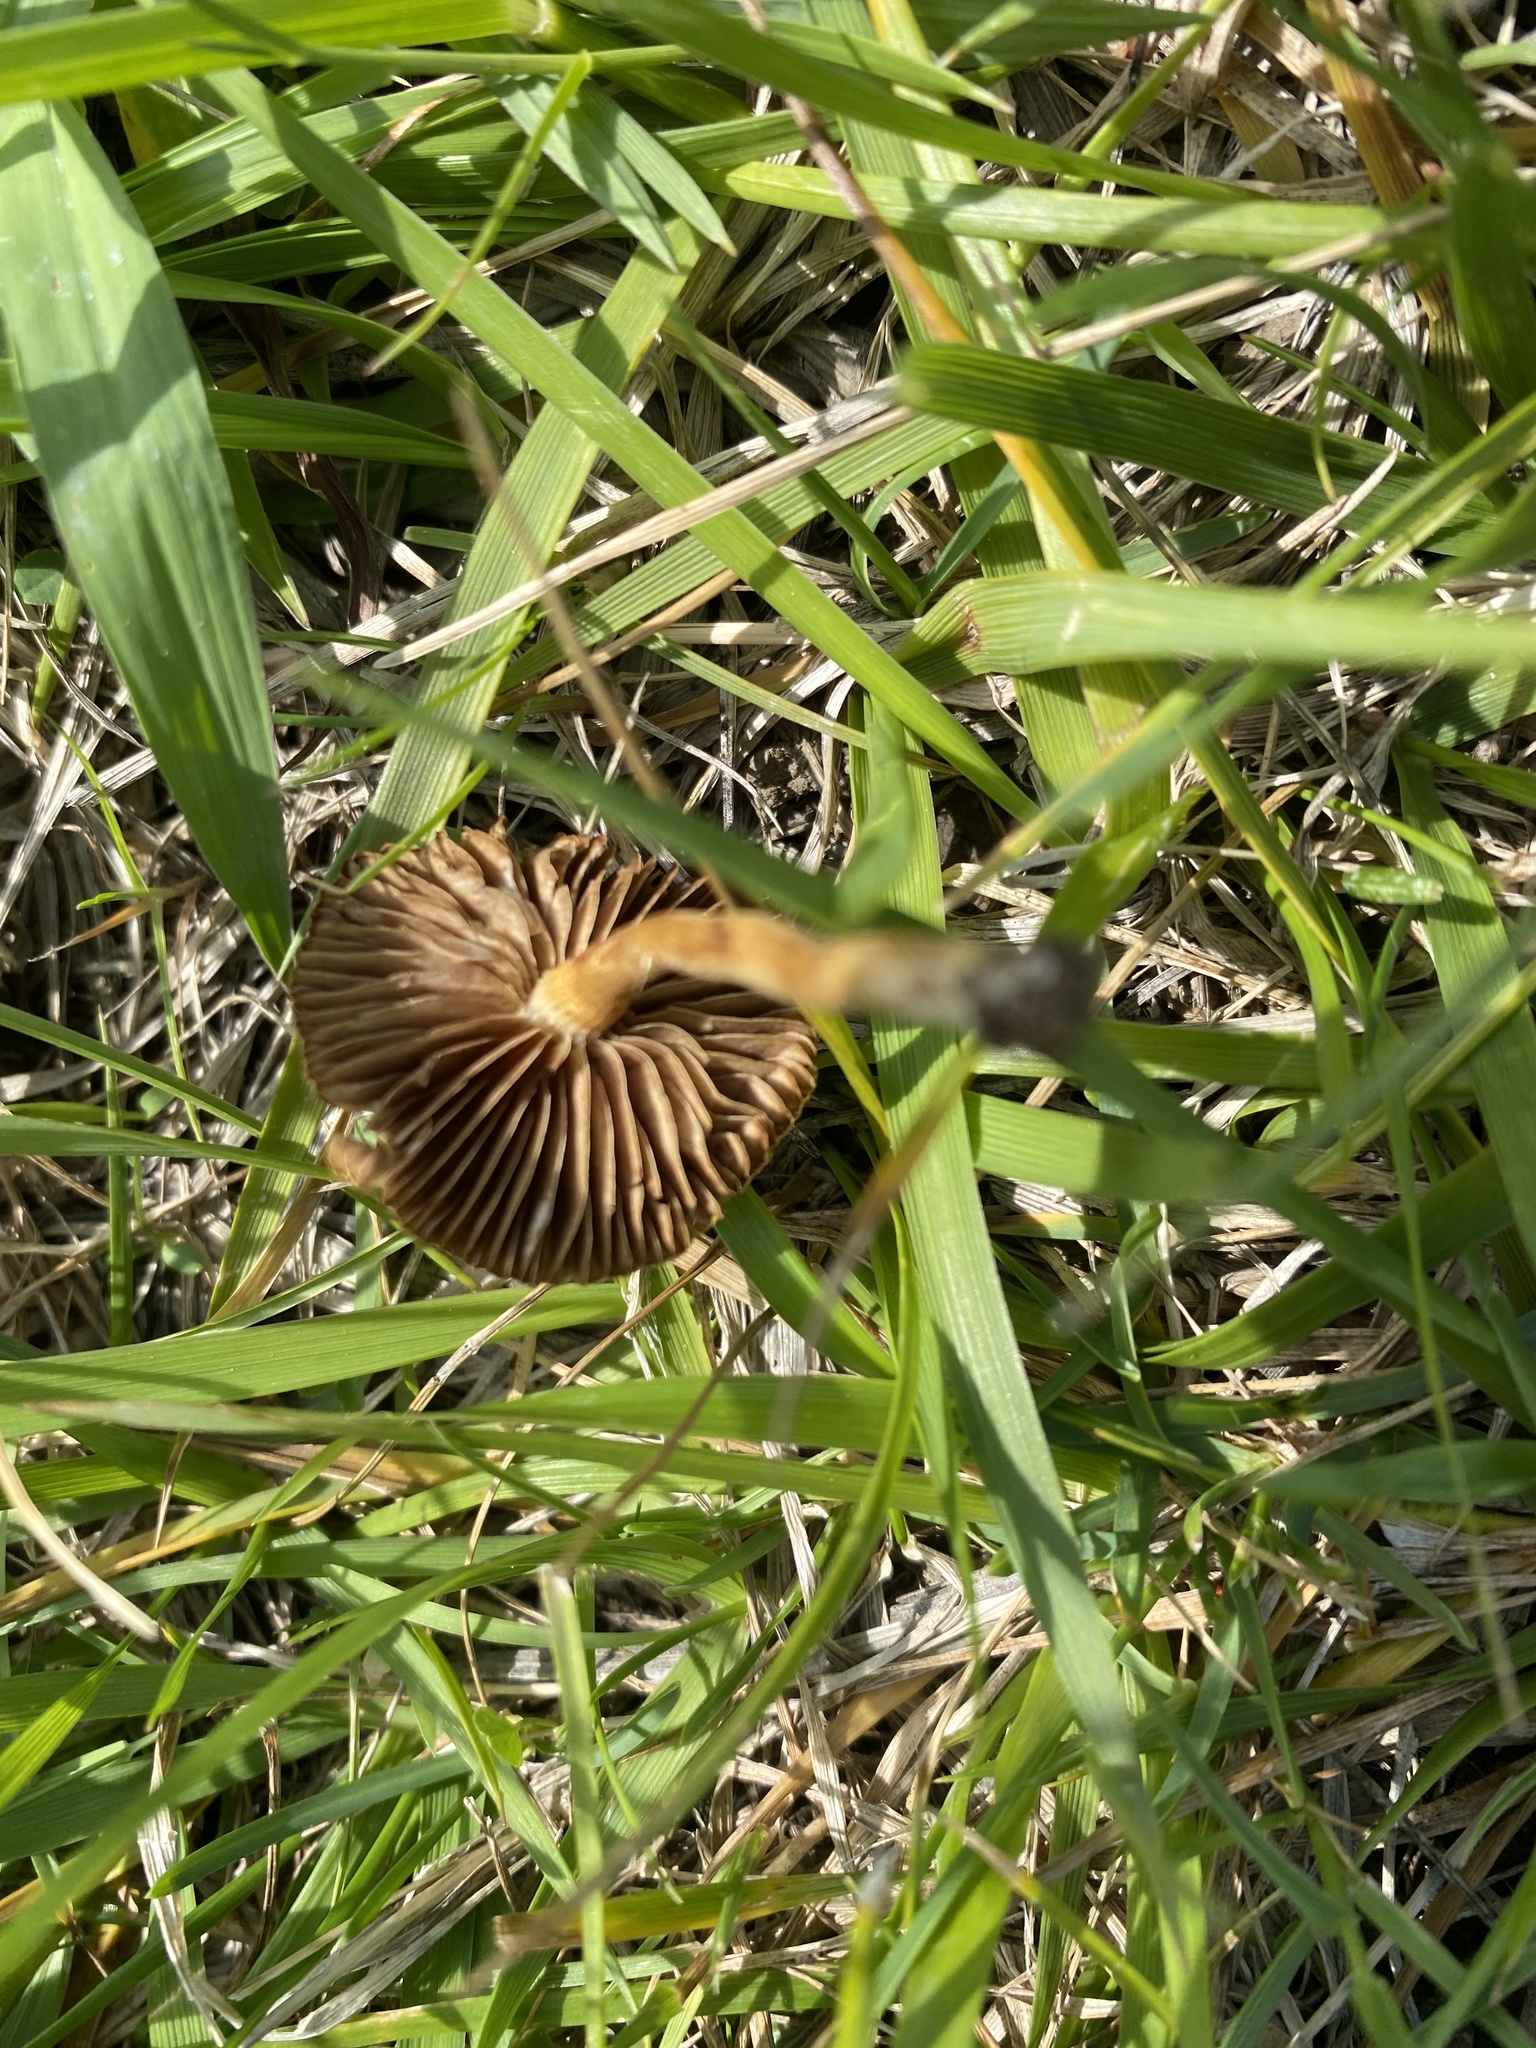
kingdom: Fungi
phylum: Basidiomycota
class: Agaricomycetes
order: Agaricales
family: Strophariaceae
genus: Agrocybe
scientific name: Agrocybe pediades
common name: Common fieldcap
